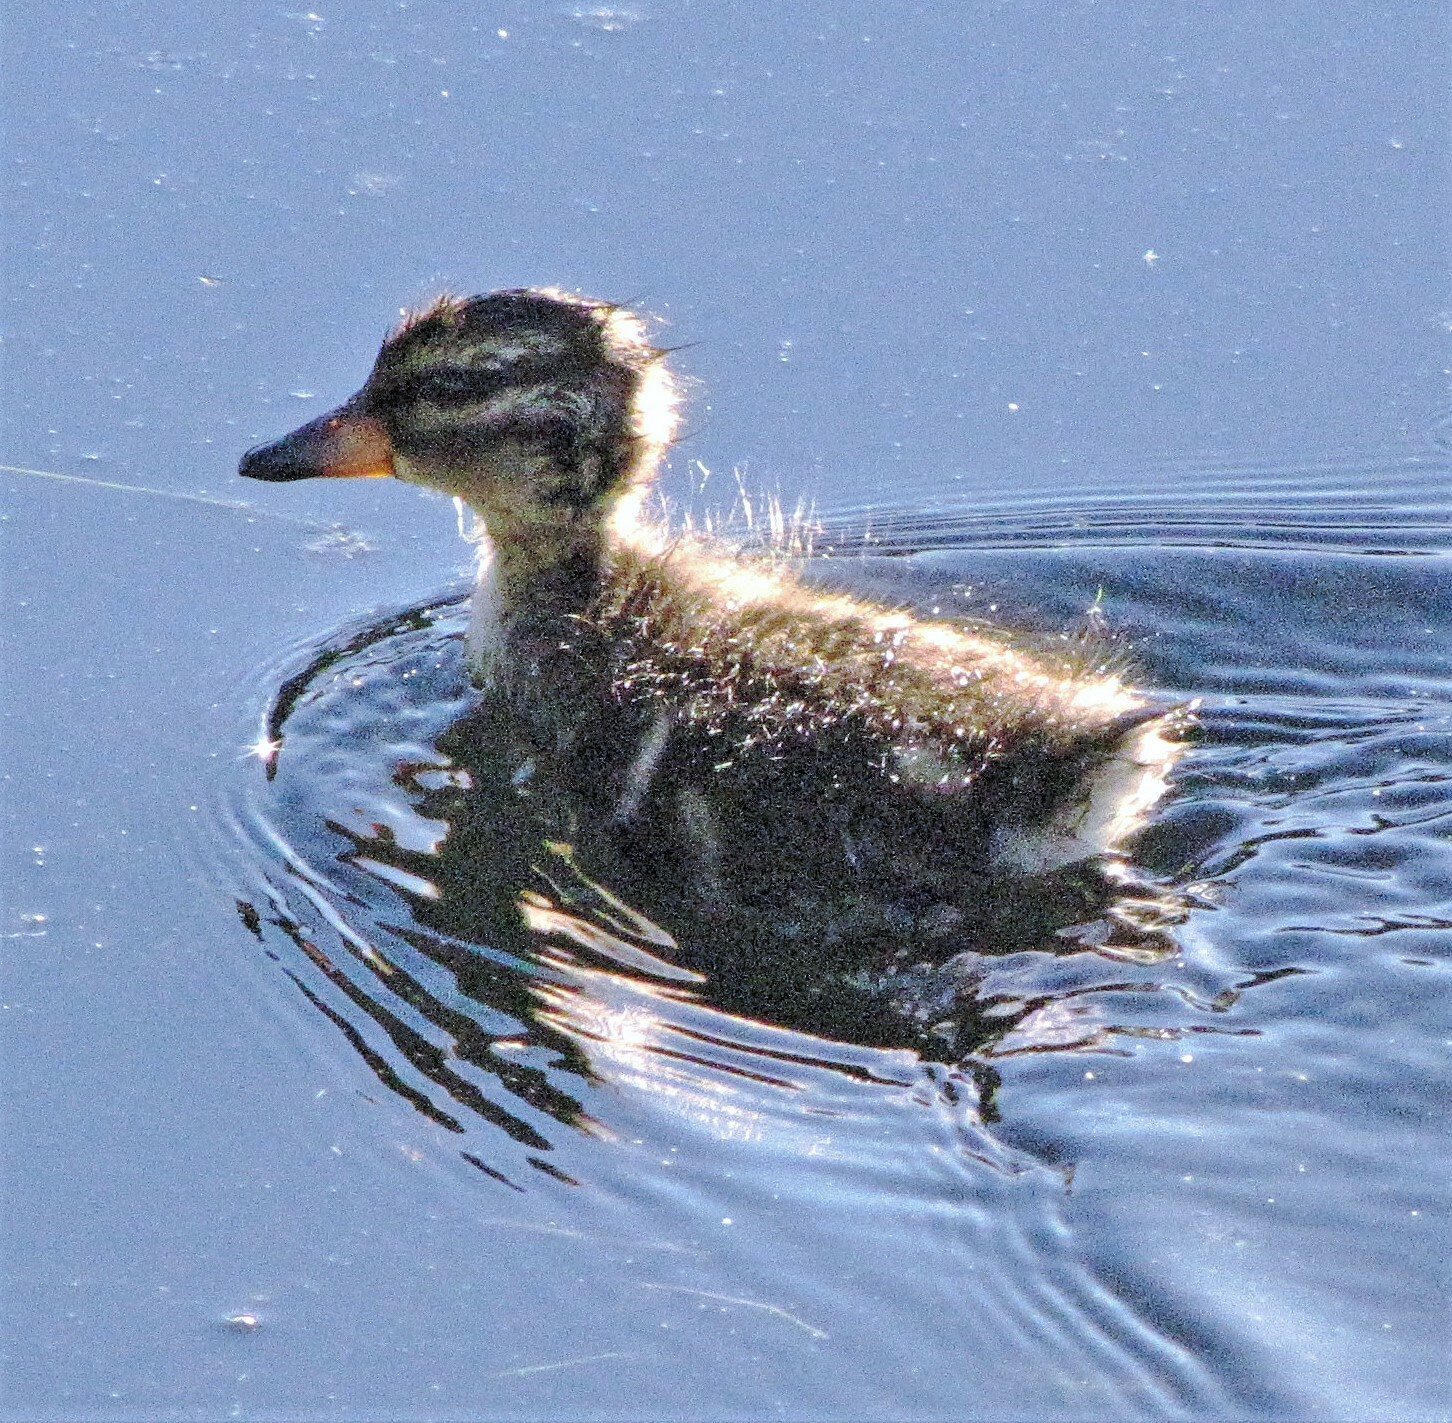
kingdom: Animalia
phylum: Chordata
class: Aves
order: Anseriformes
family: Anatidae
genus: Anas
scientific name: Anas flavirostris
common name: Yellow-billed teal
